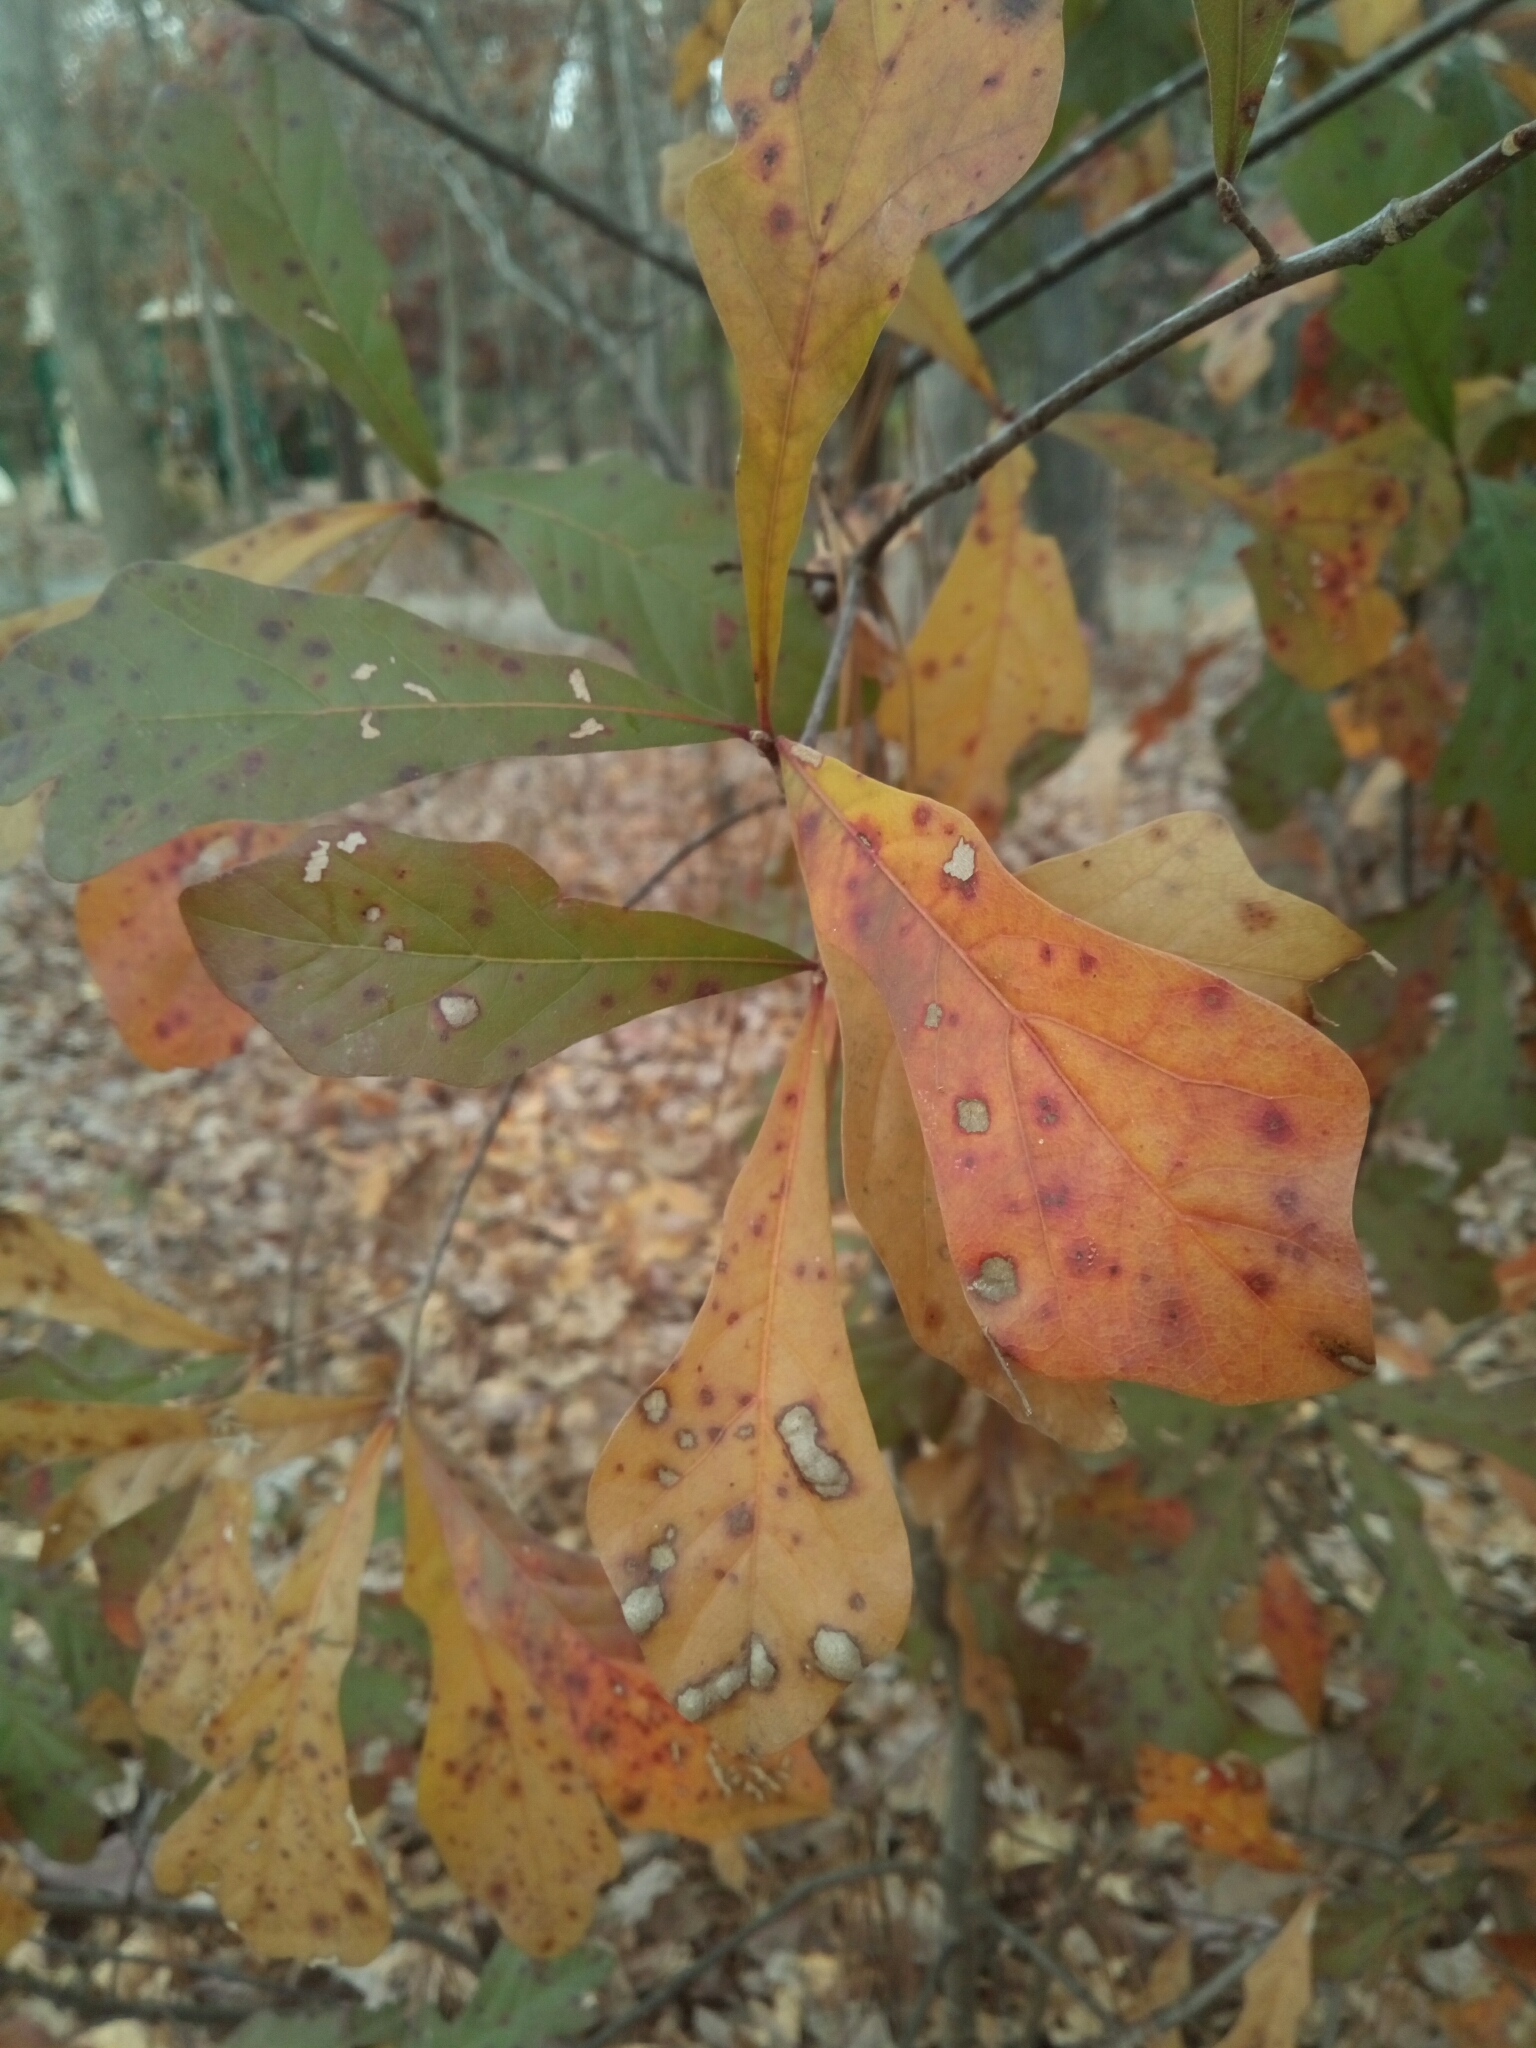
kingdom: Plantae
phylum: Tracheophyta
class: Magnoliopsida
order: Fagales
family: Fagaceae
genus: Quercus
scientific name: Quercus nigra
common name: Water oak
